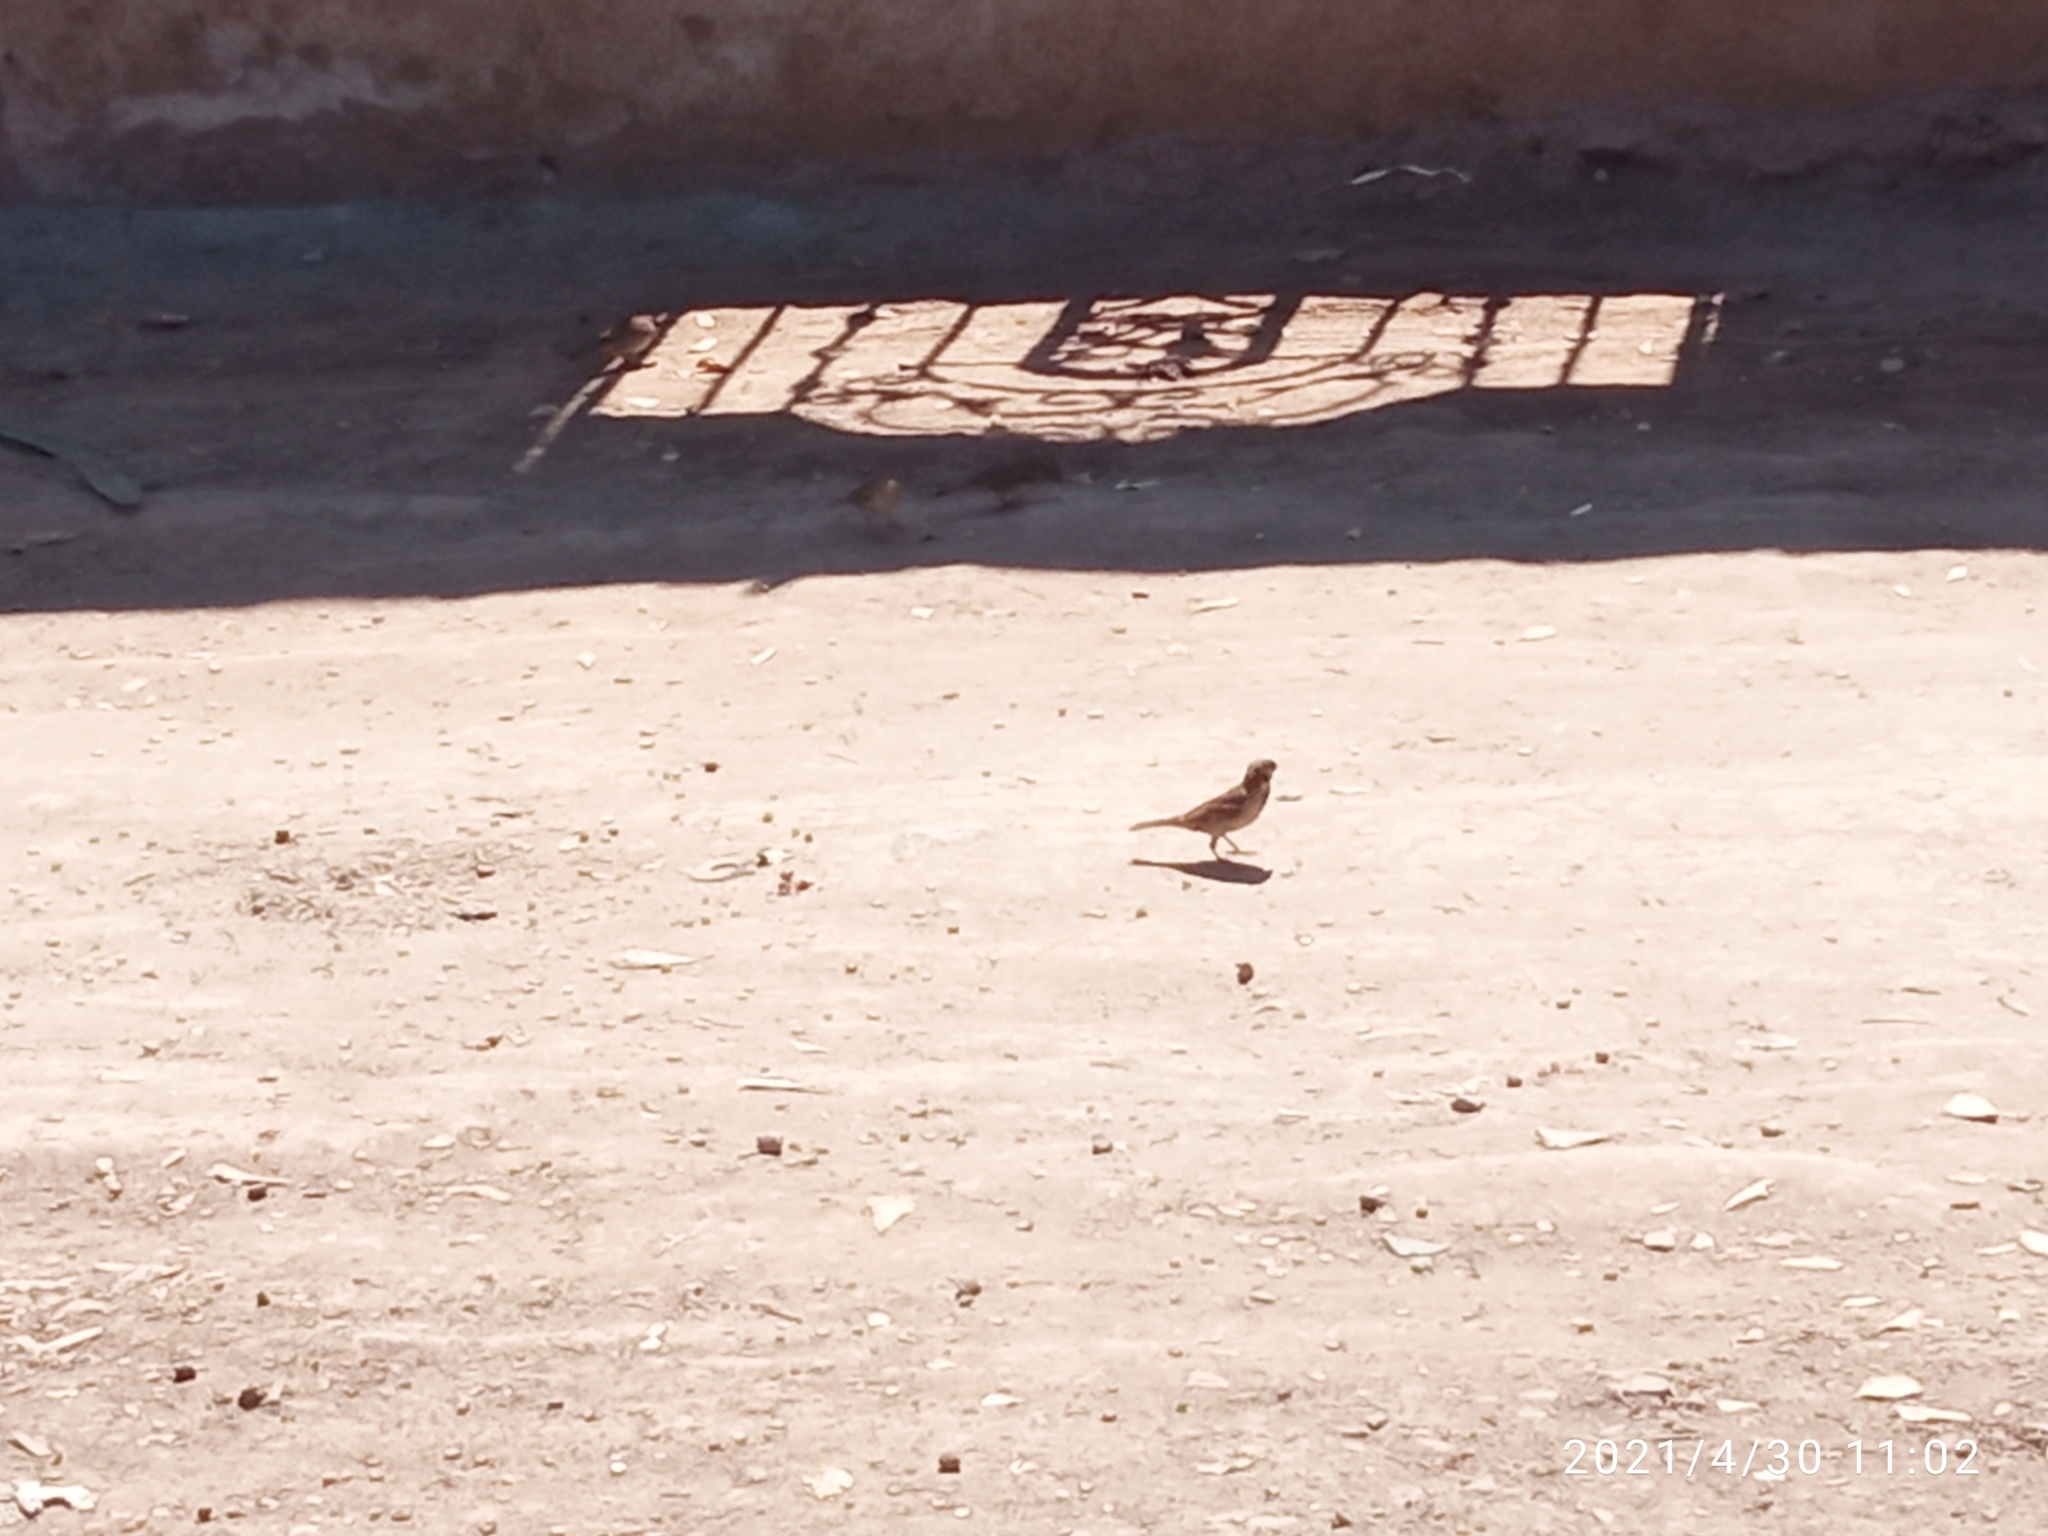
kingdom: Animalia
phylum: Chordata
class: Aves
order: Passeriformes
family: Passeridae
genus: Passer
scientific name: Passer domesticus
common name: House sparrow
